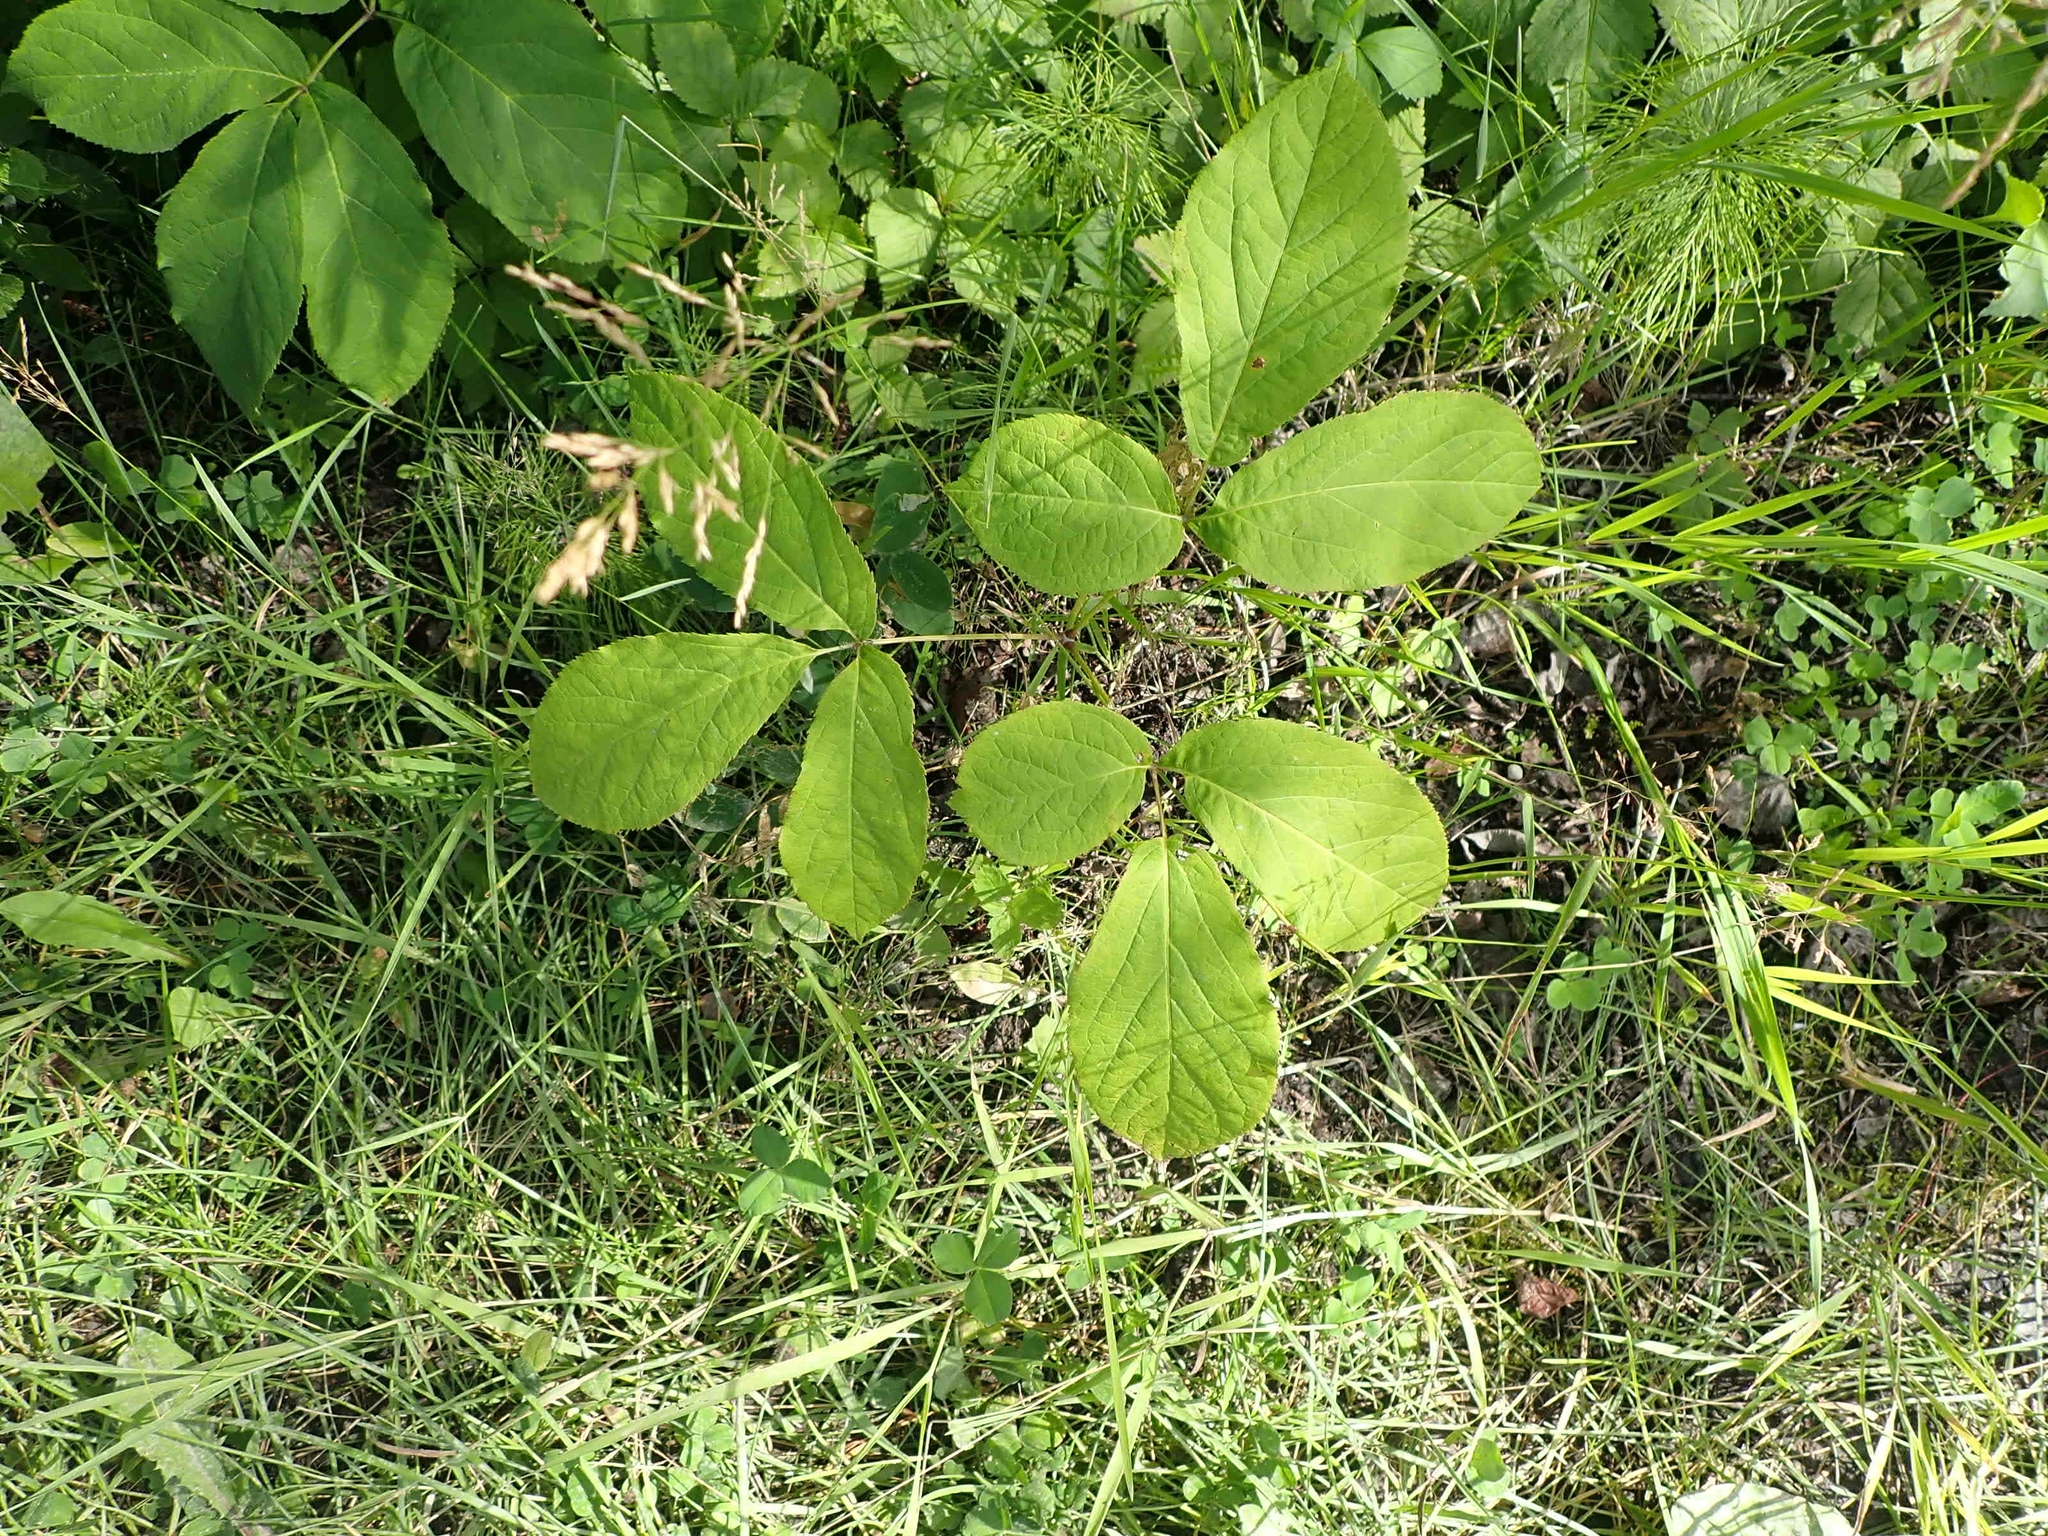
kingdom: Plantae
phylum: Tracheophyta
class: Magnoliopsida
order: Apiales
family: Araliaceae
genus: Aralia
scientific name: Aralia nudicaulis
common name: Wild sarsaparilla
